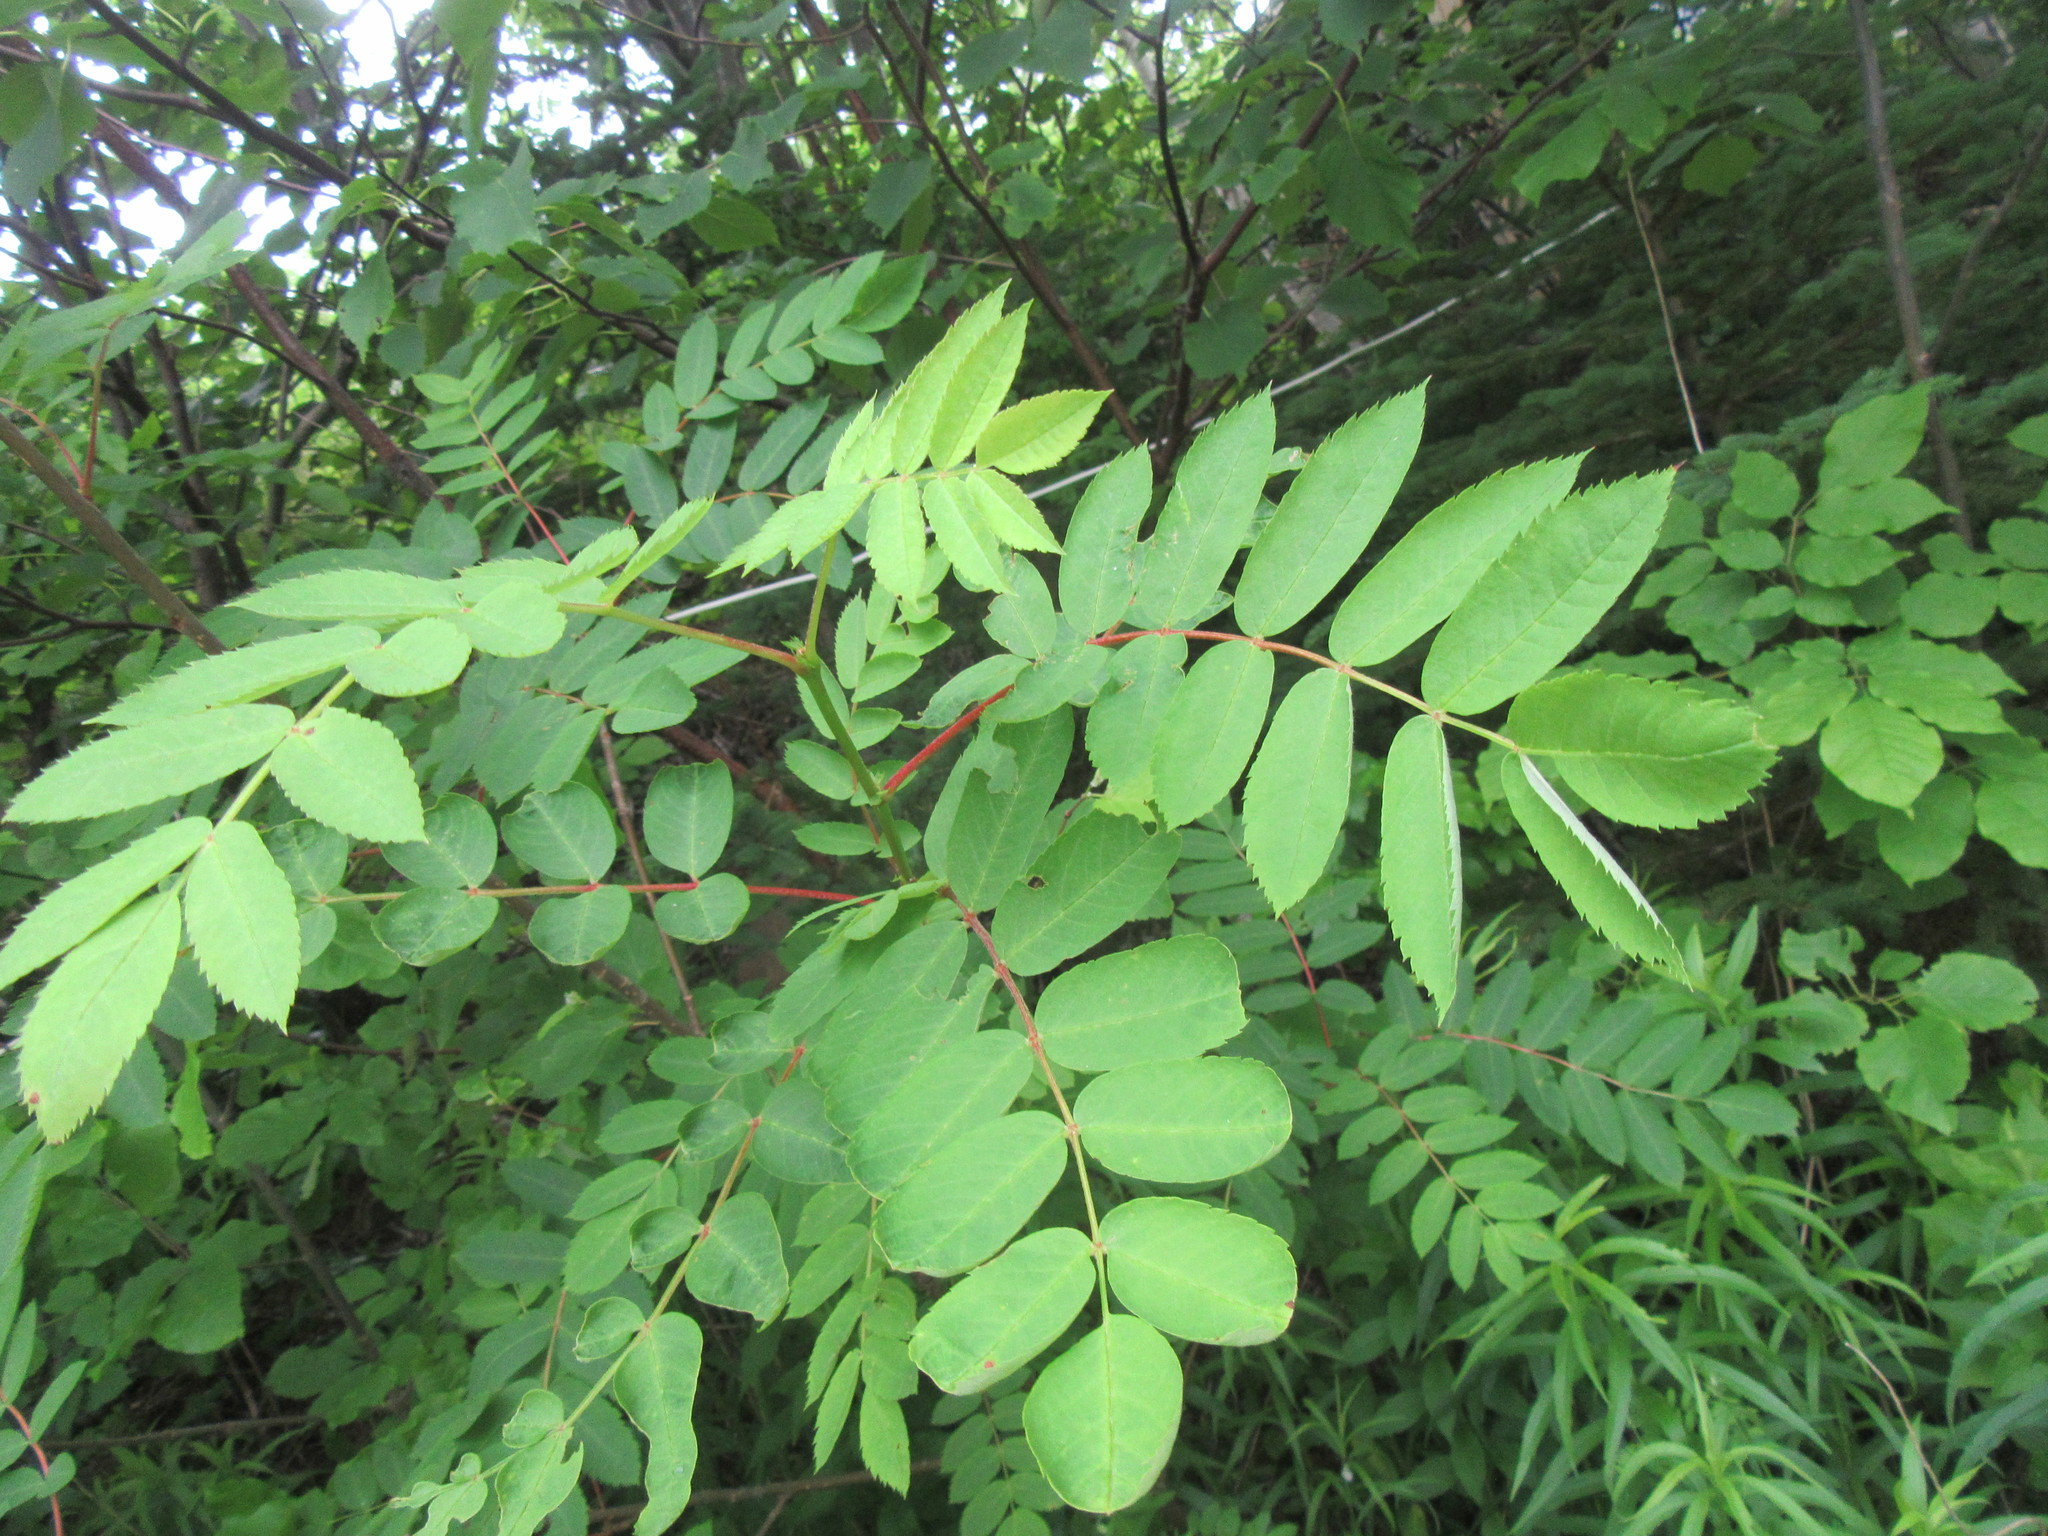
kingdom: Plantae
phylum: Tracheophyta
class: Magnoliopsida
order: Rosales
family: Rosaceae
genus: Sorbus
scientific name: Sorbus americana
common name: American mountain-ash
